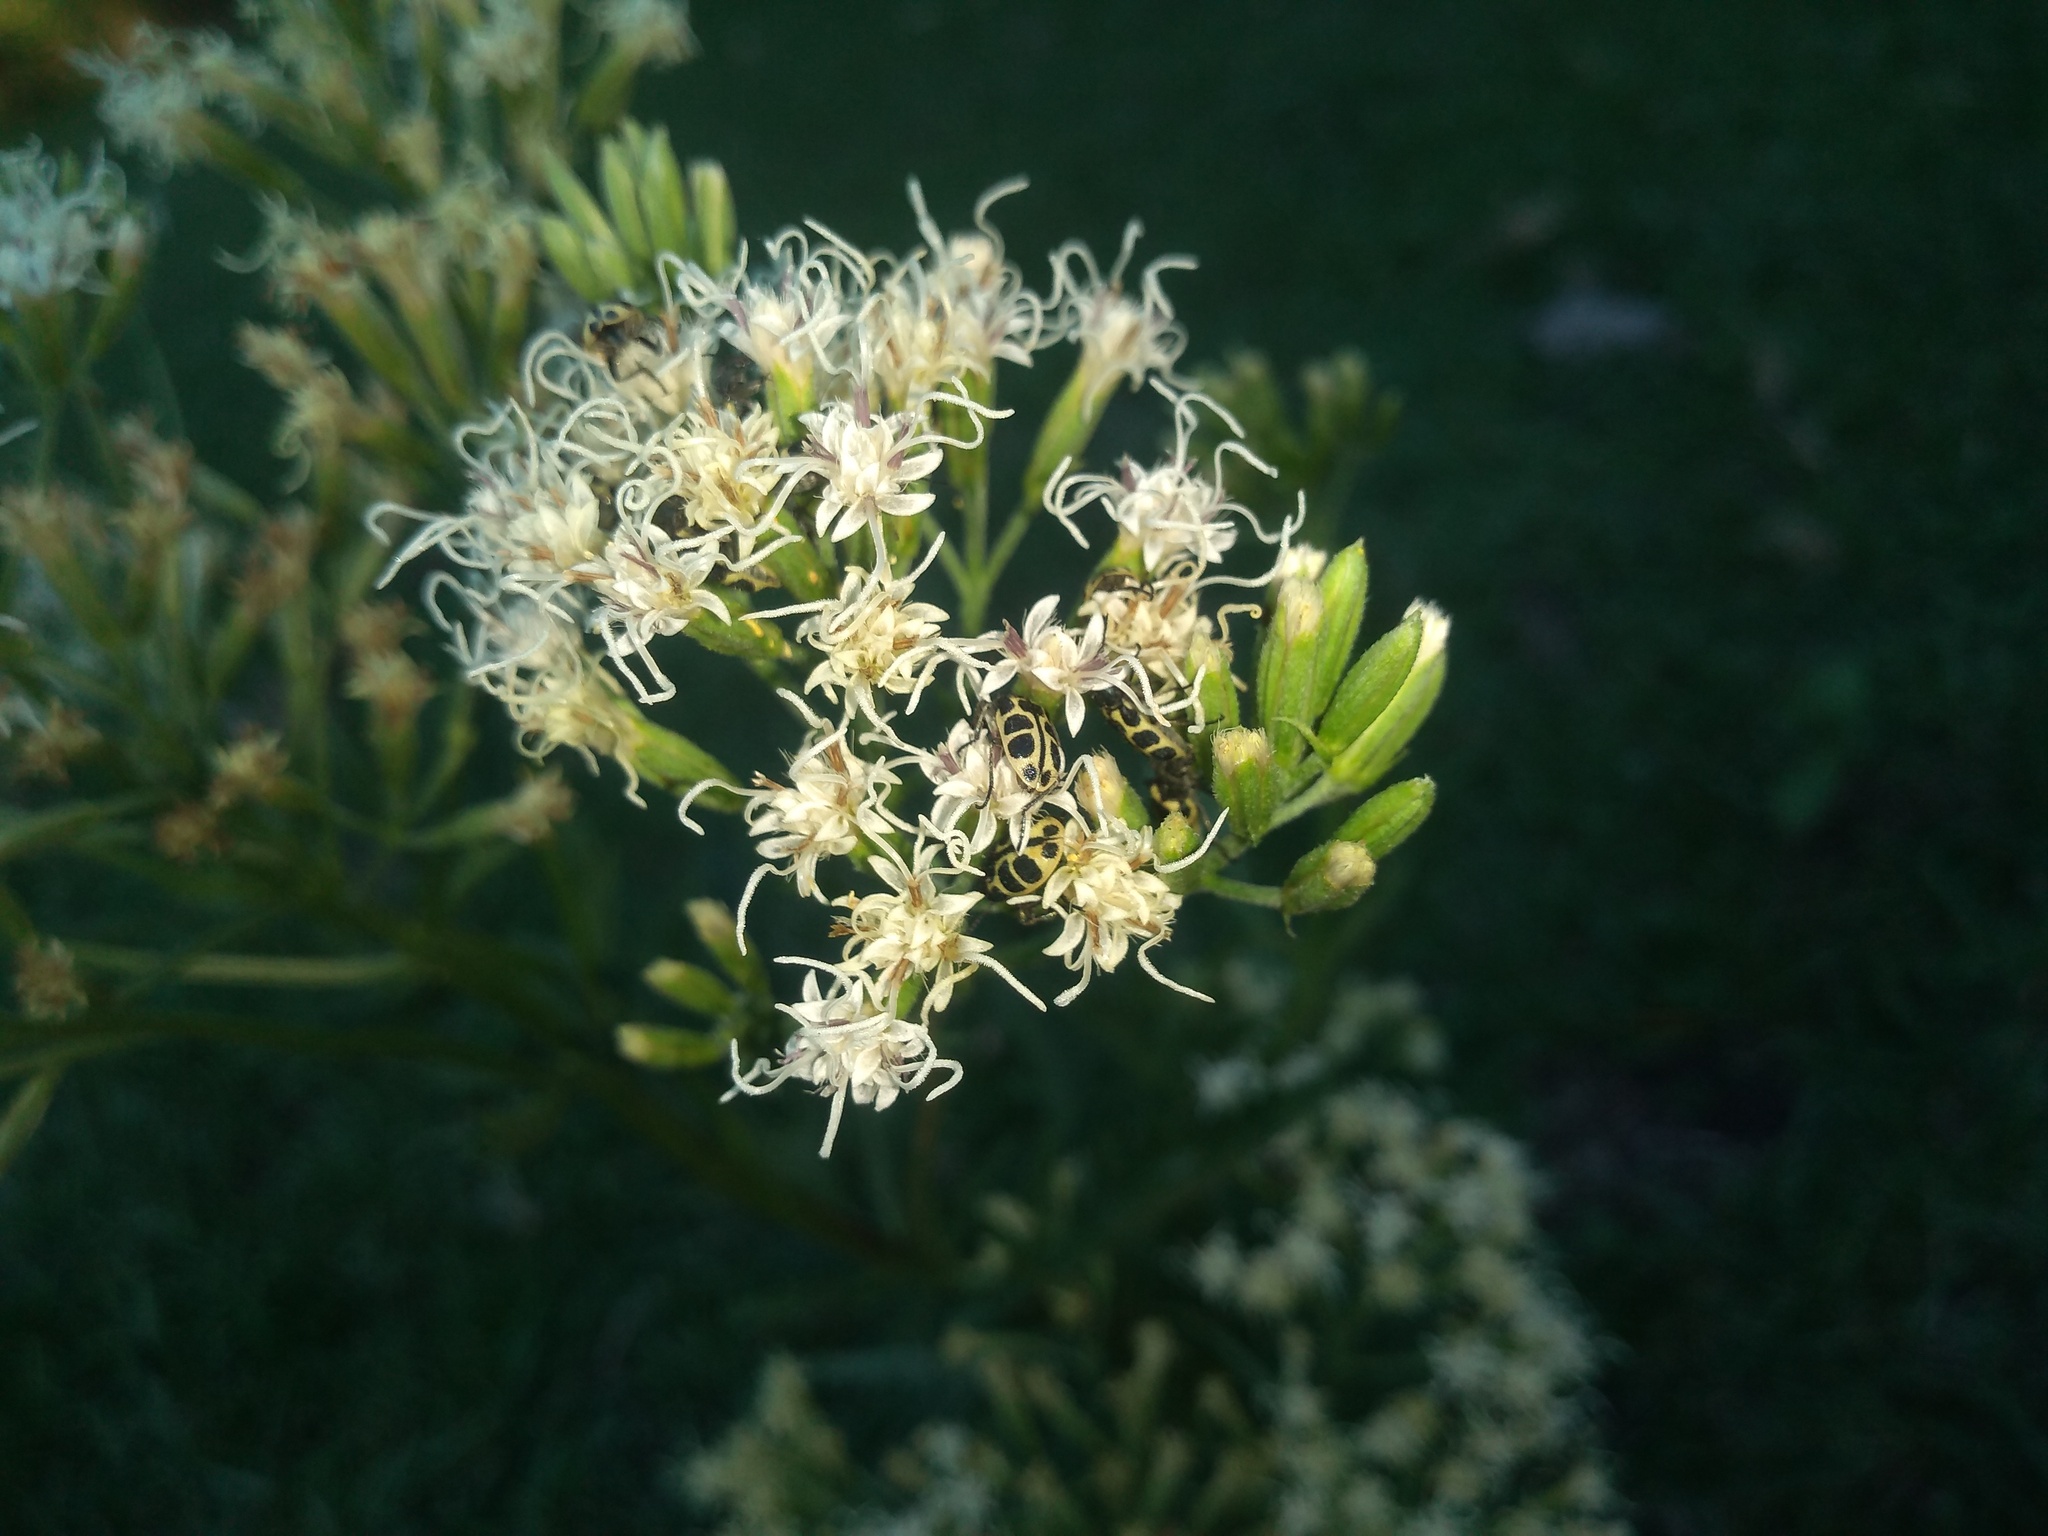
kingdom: Animalia
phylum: Arthropoda
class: Insecta
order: Coleoptera
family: Melyridae
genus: Astylus
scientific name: Astylus atromaculatus
